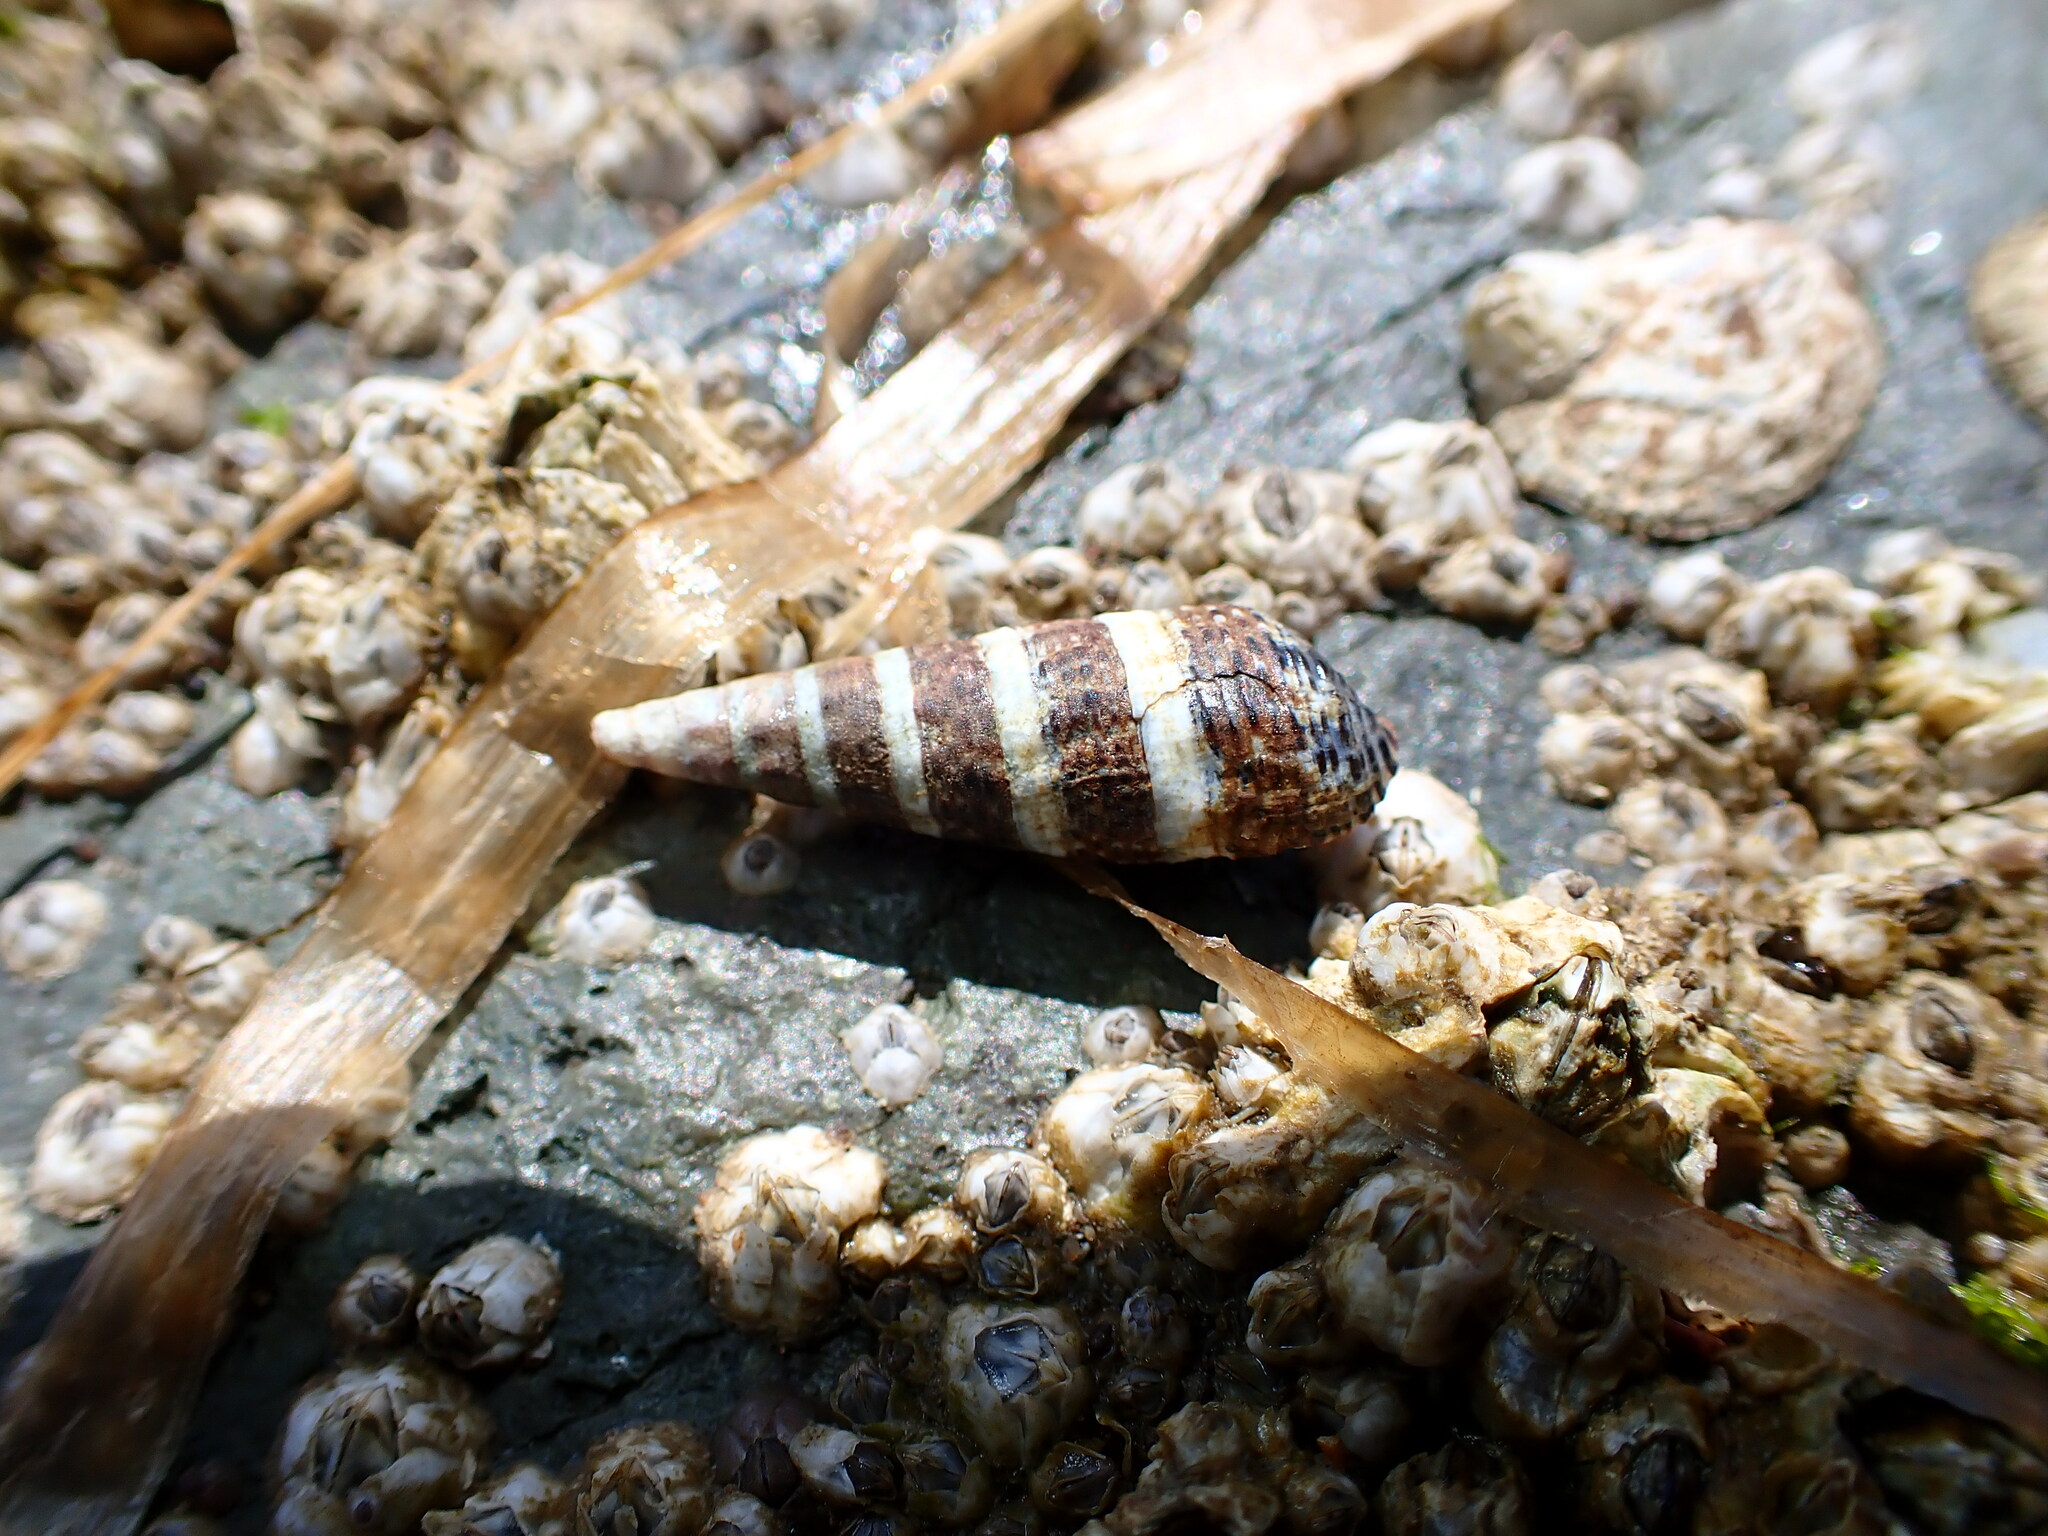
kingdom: Animalia
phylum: Mollusca
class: Gastropoda
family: Batillariidae
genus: Batillaria
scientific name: Batillaria attramentaria
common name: Japanese false cerith
